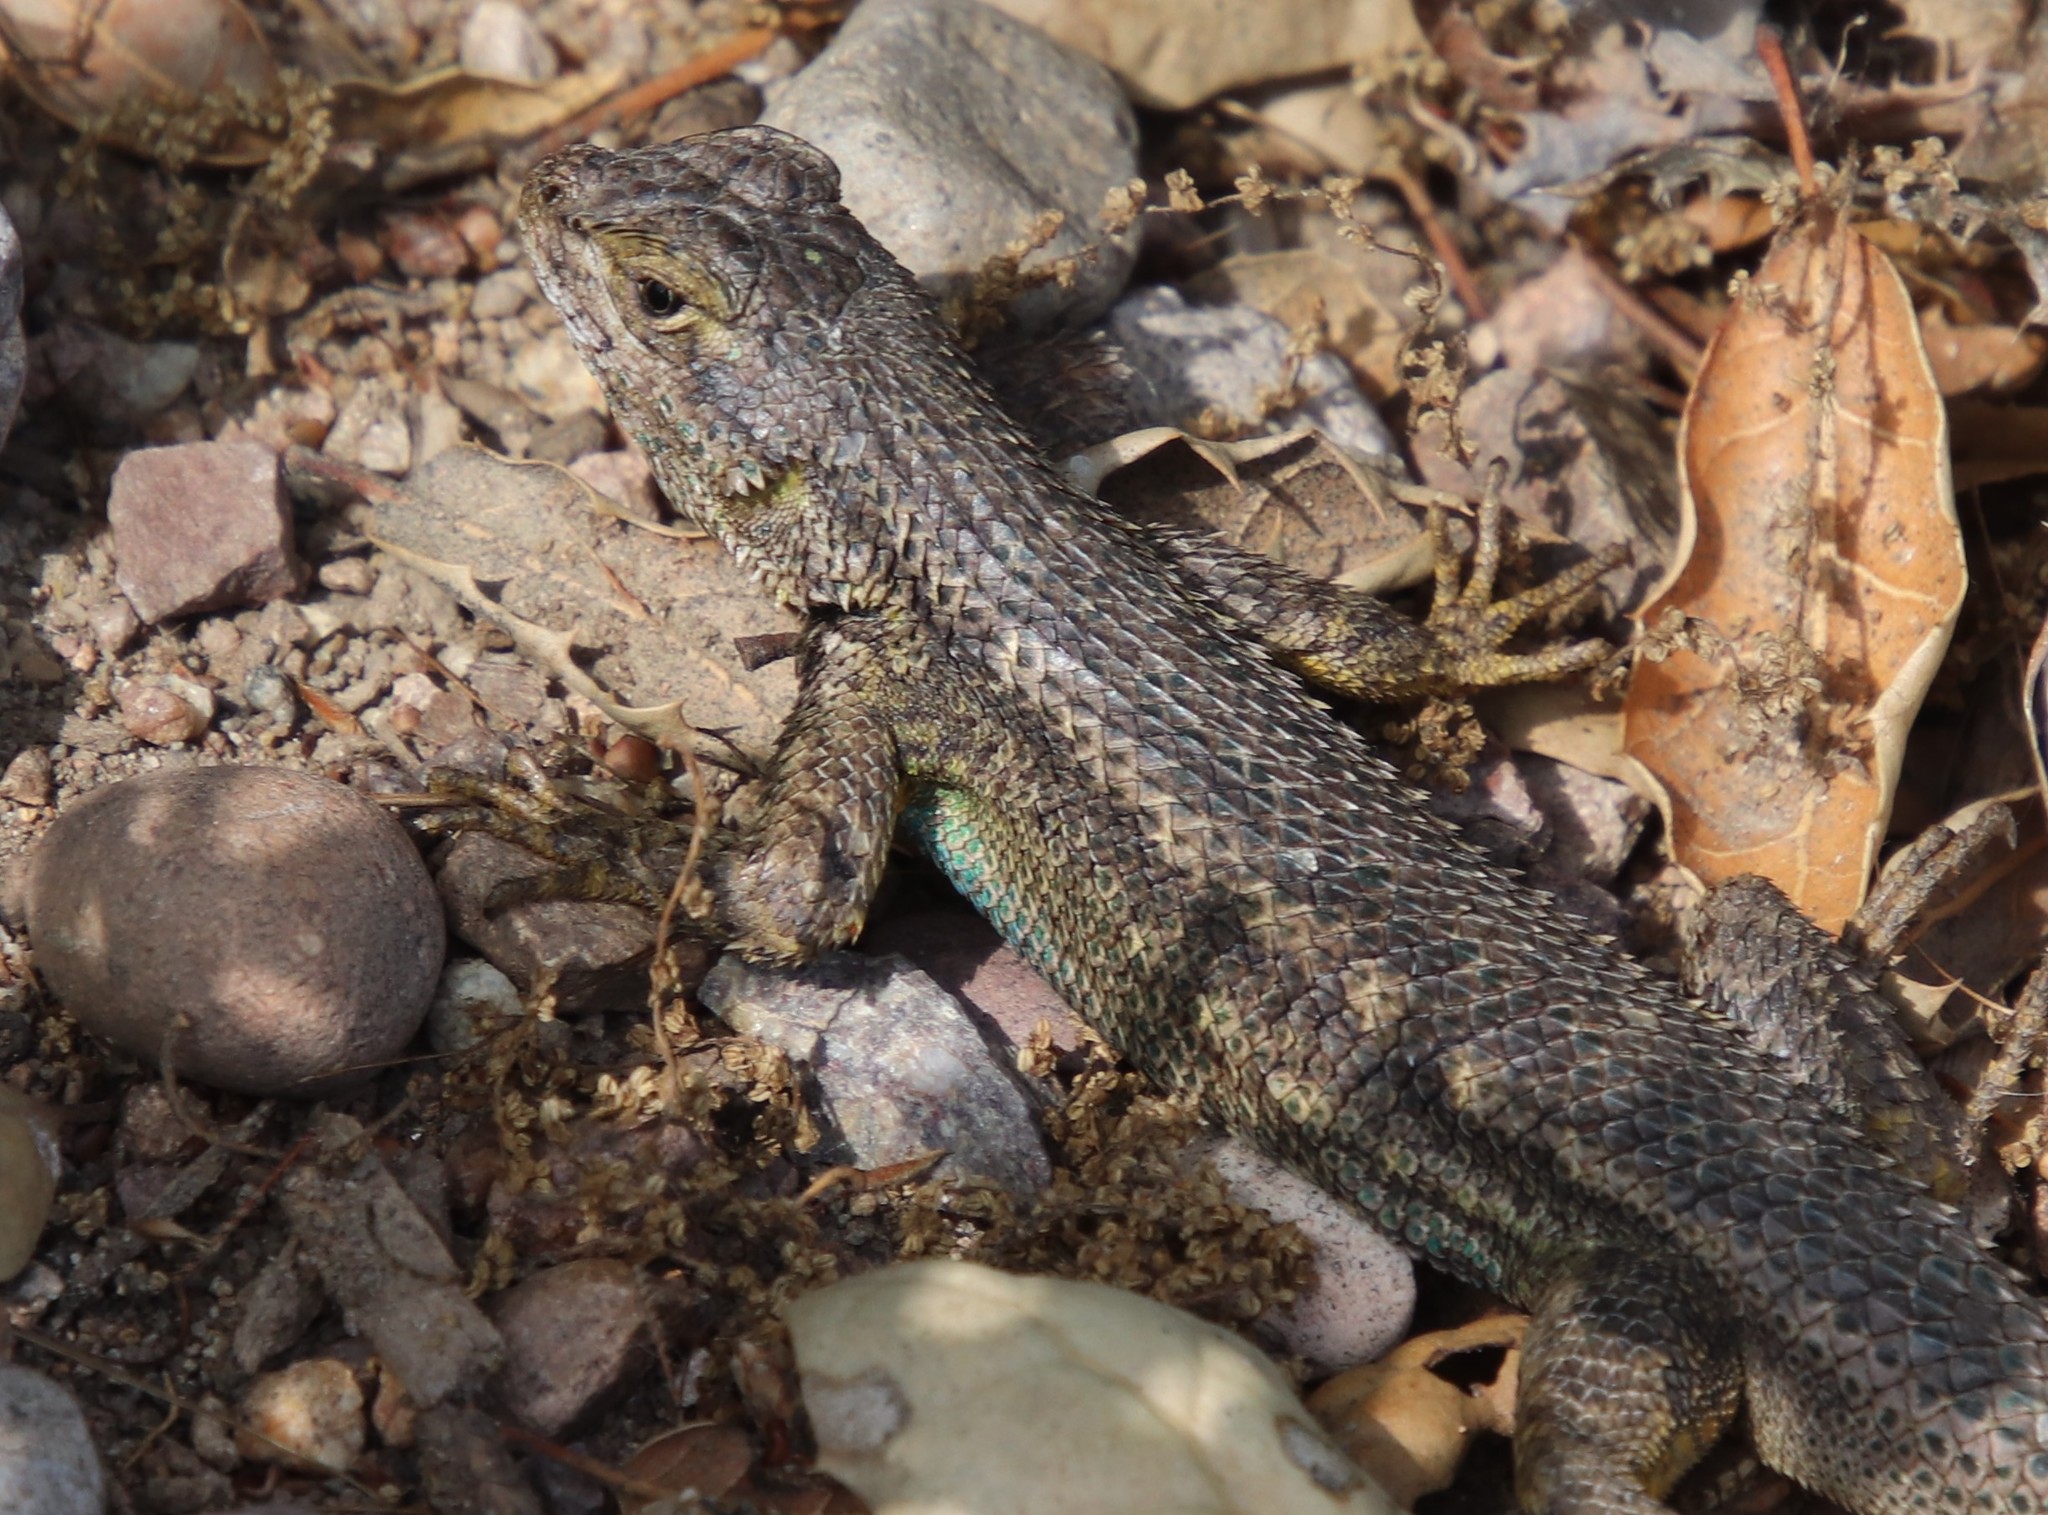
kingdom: Animalia
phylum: Chordata
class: Squamata
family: Phrynosomatidae
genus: Sceloporus
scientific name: Sceloporus occidentalis
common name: Western fence lizard
